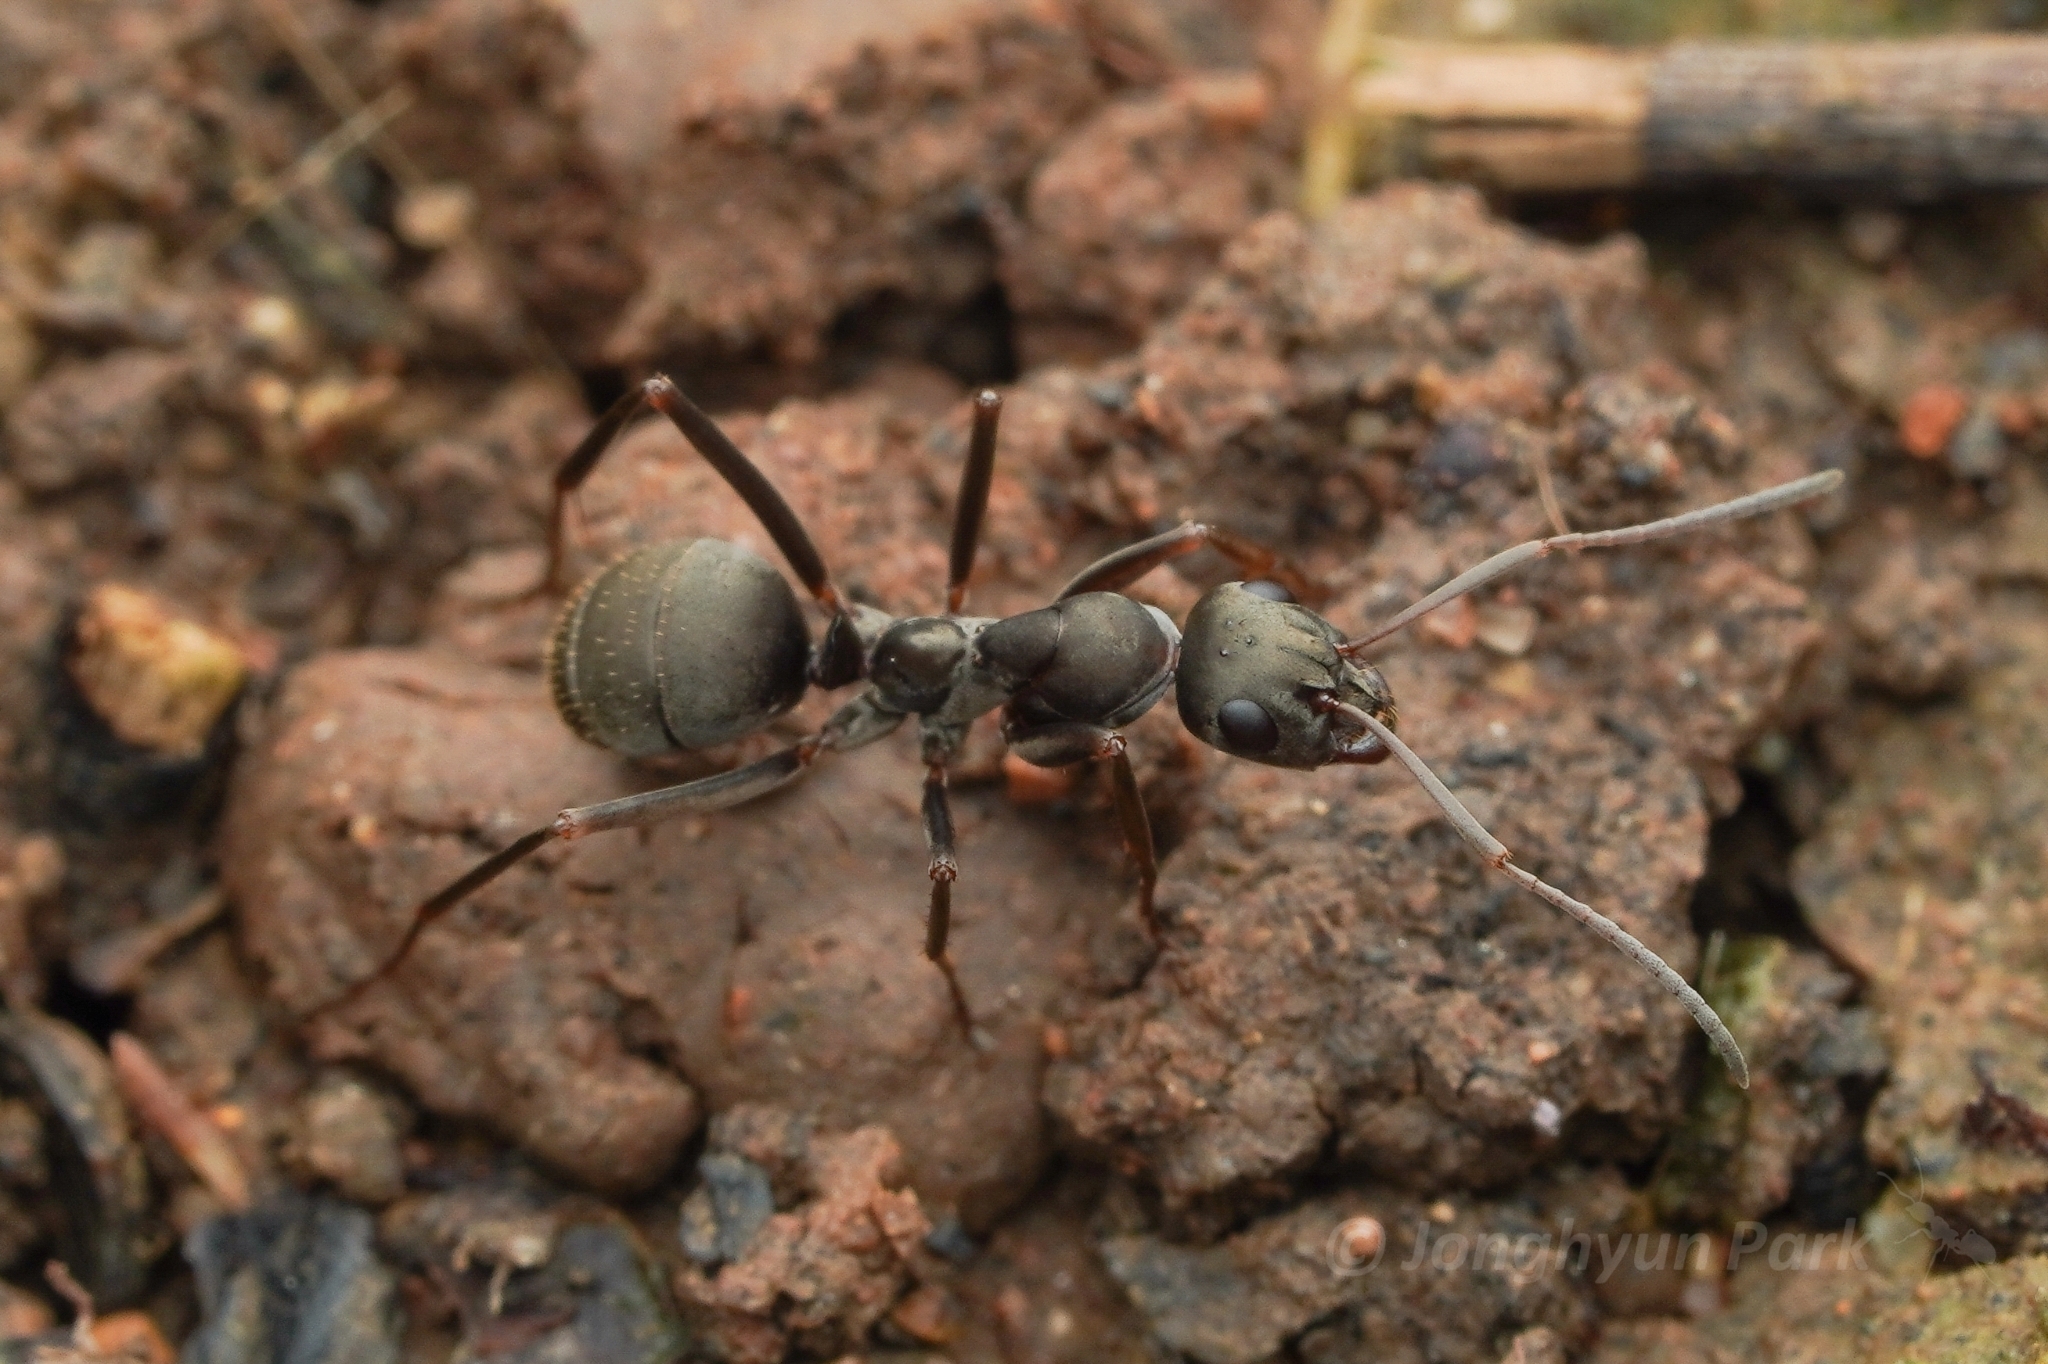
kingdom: Animalia
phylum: Arthropoda
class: Insecta
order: Hymenoptera
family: Formicidae
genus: Formica
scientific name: Formica japonica
